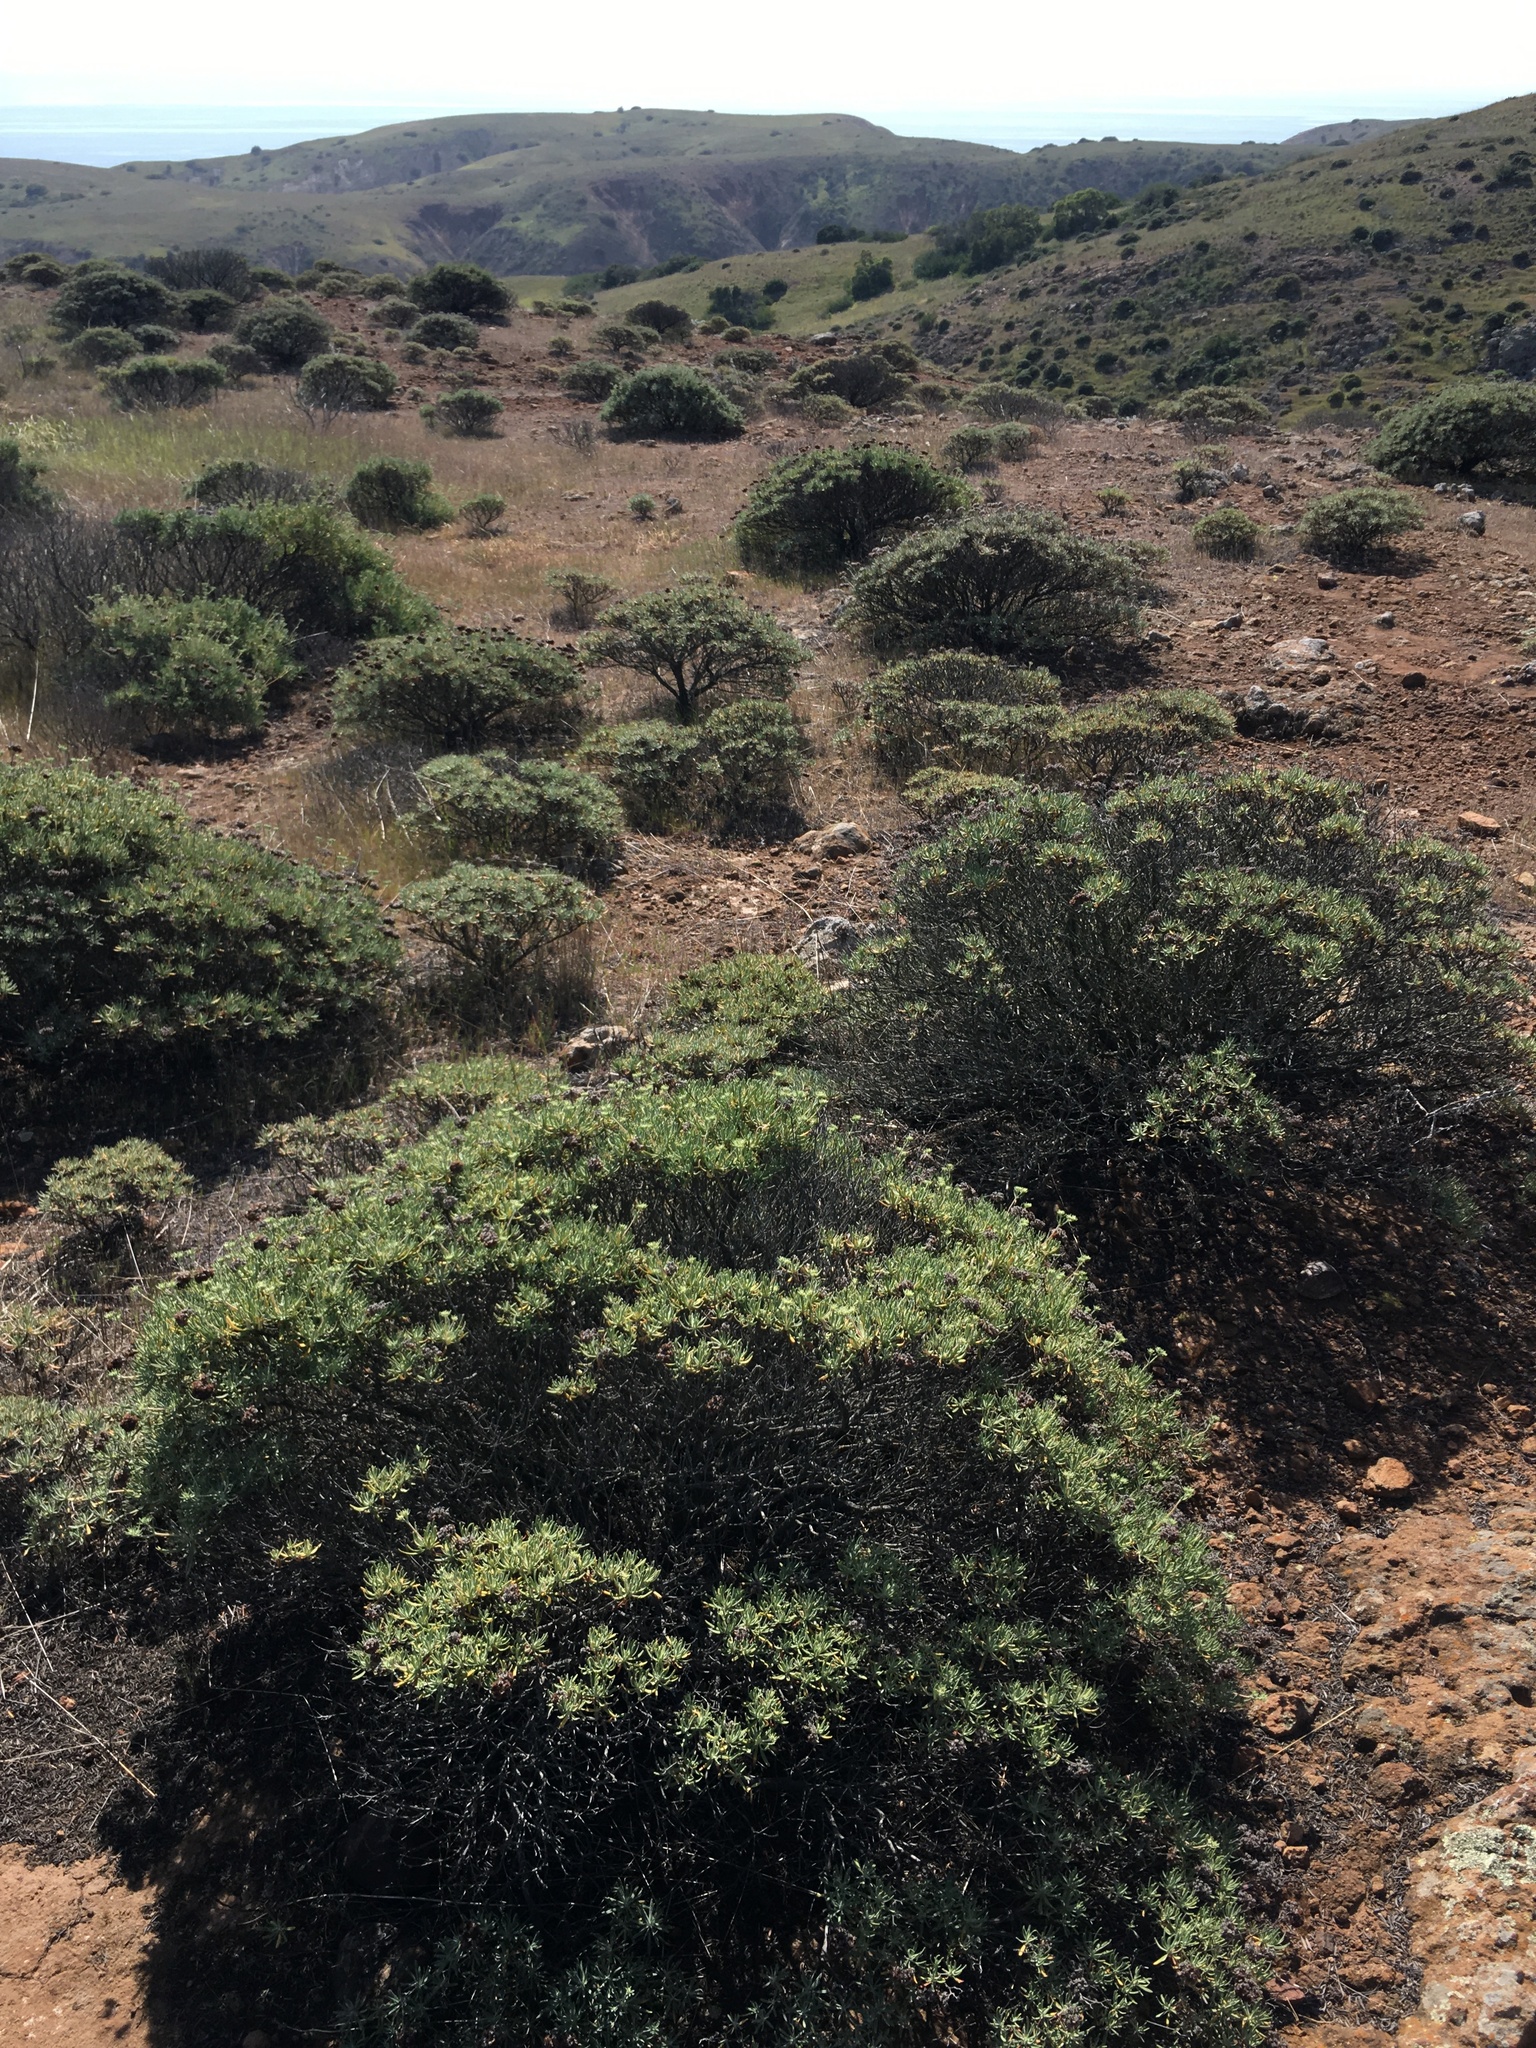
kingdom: Plantae
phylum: Tracheophyta
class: Magnoliopsida
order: Caryophyllales
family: Polygonaceae
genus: Eriogonum
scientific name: Eriogonum arborescens
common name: Island buckwheat
